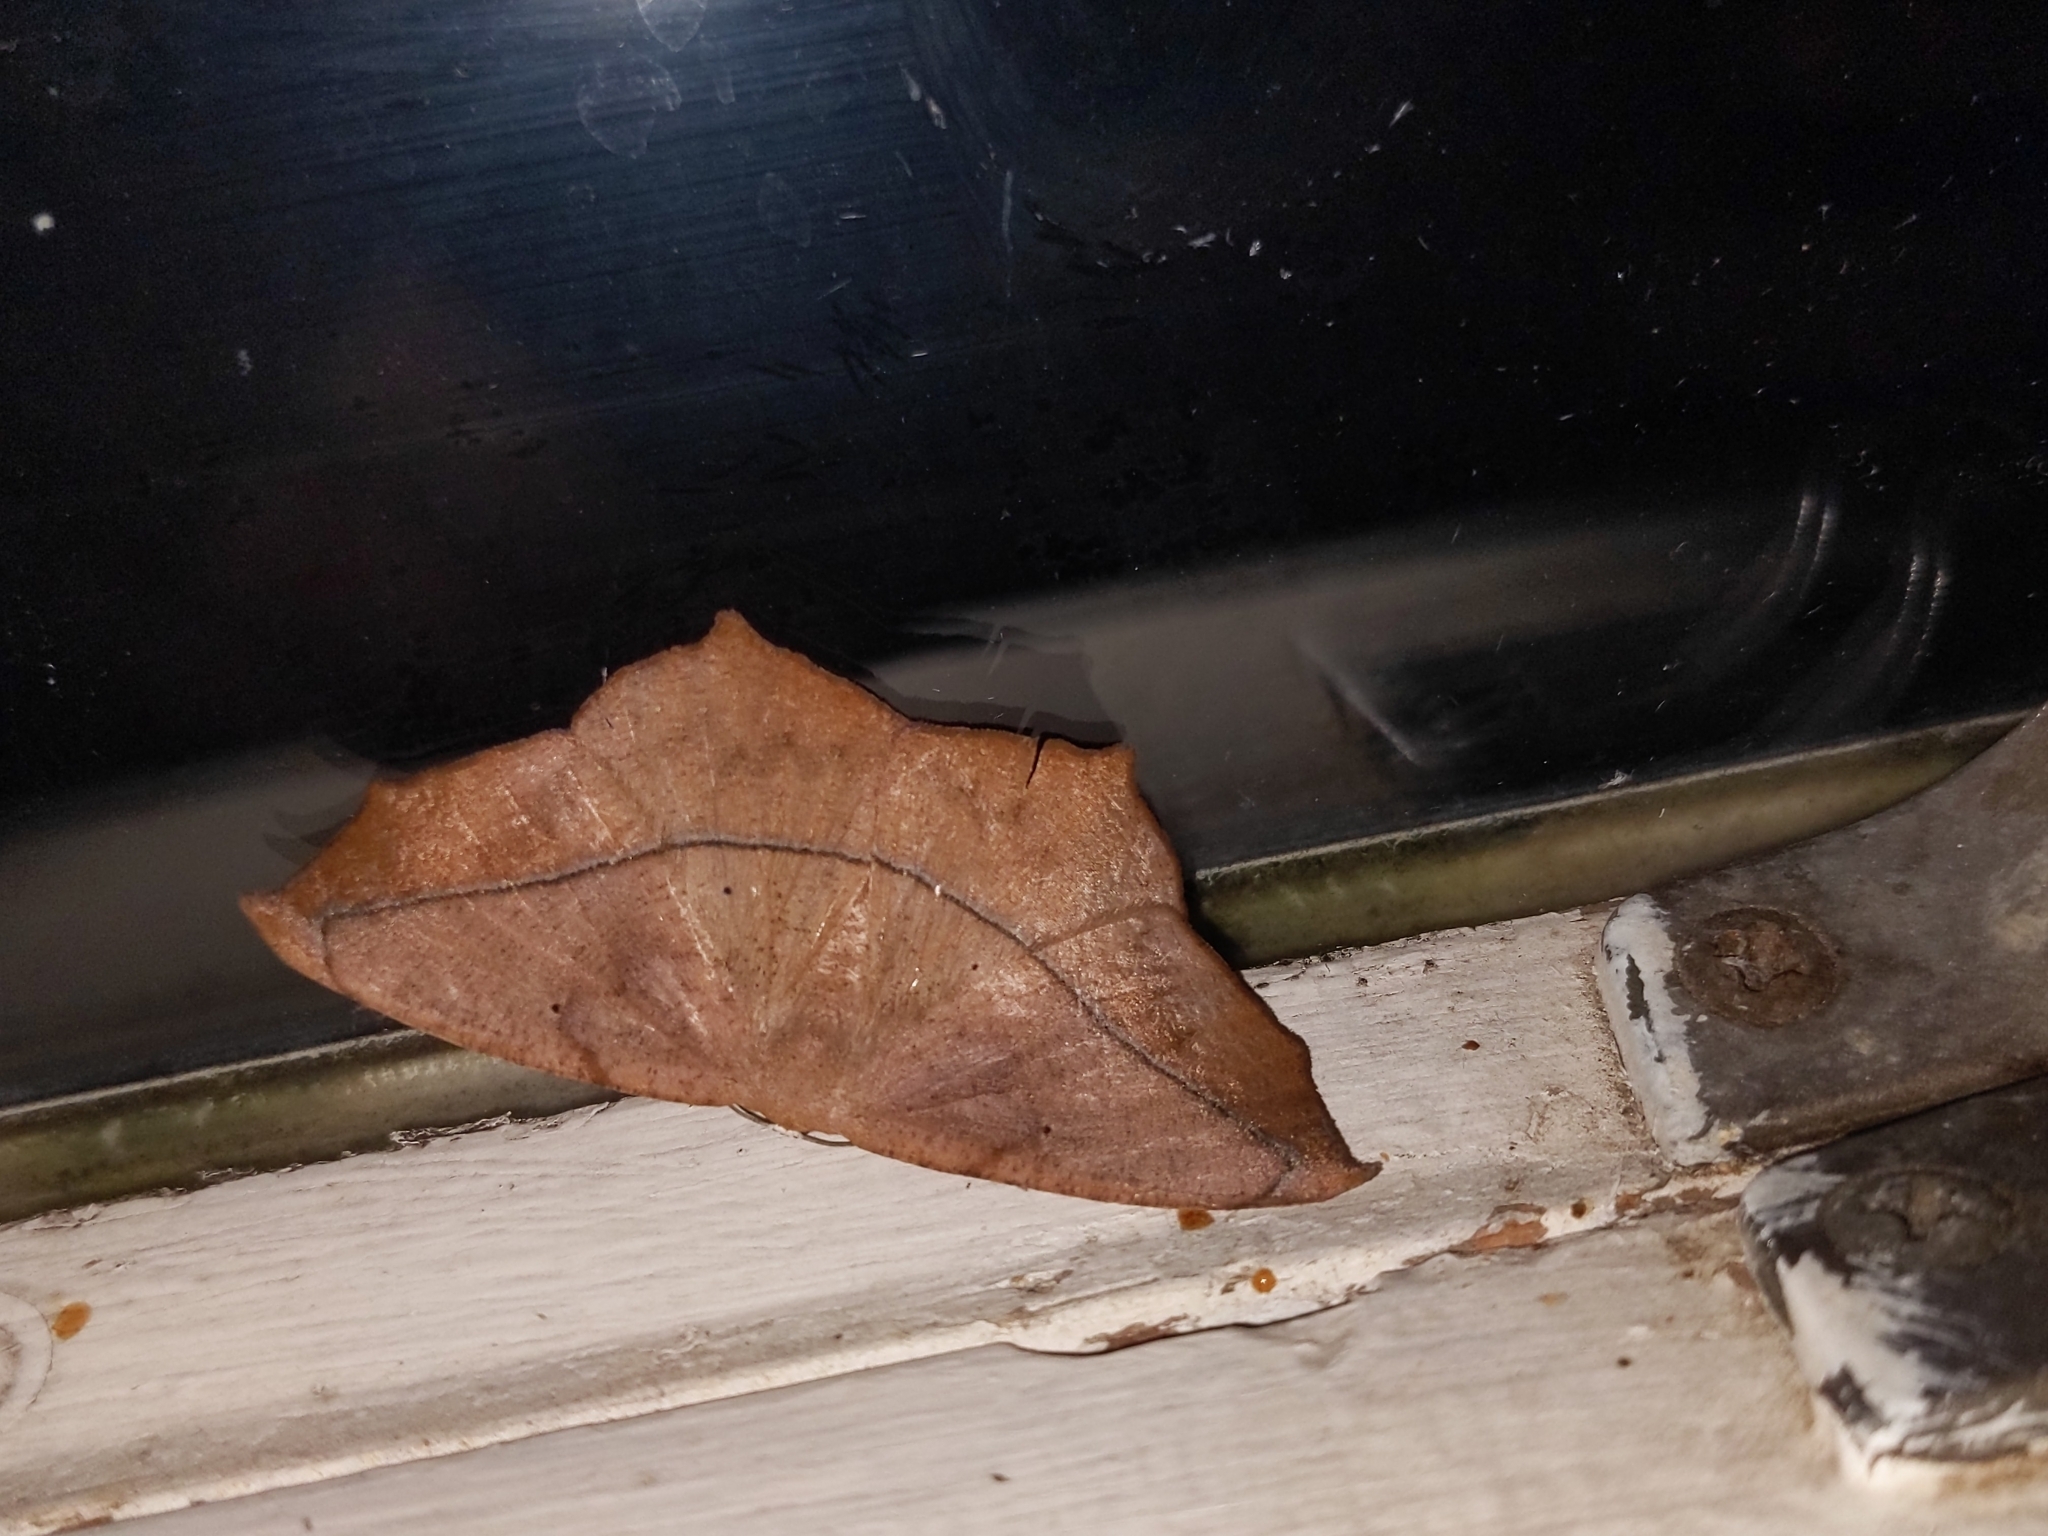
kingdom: Animalia
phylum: Arthropoda
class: Insecta
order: Lepidoptera
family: Geometridae
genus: Prochoerodes
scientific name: Prochoerodes lineola
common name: Large maple spanworm
